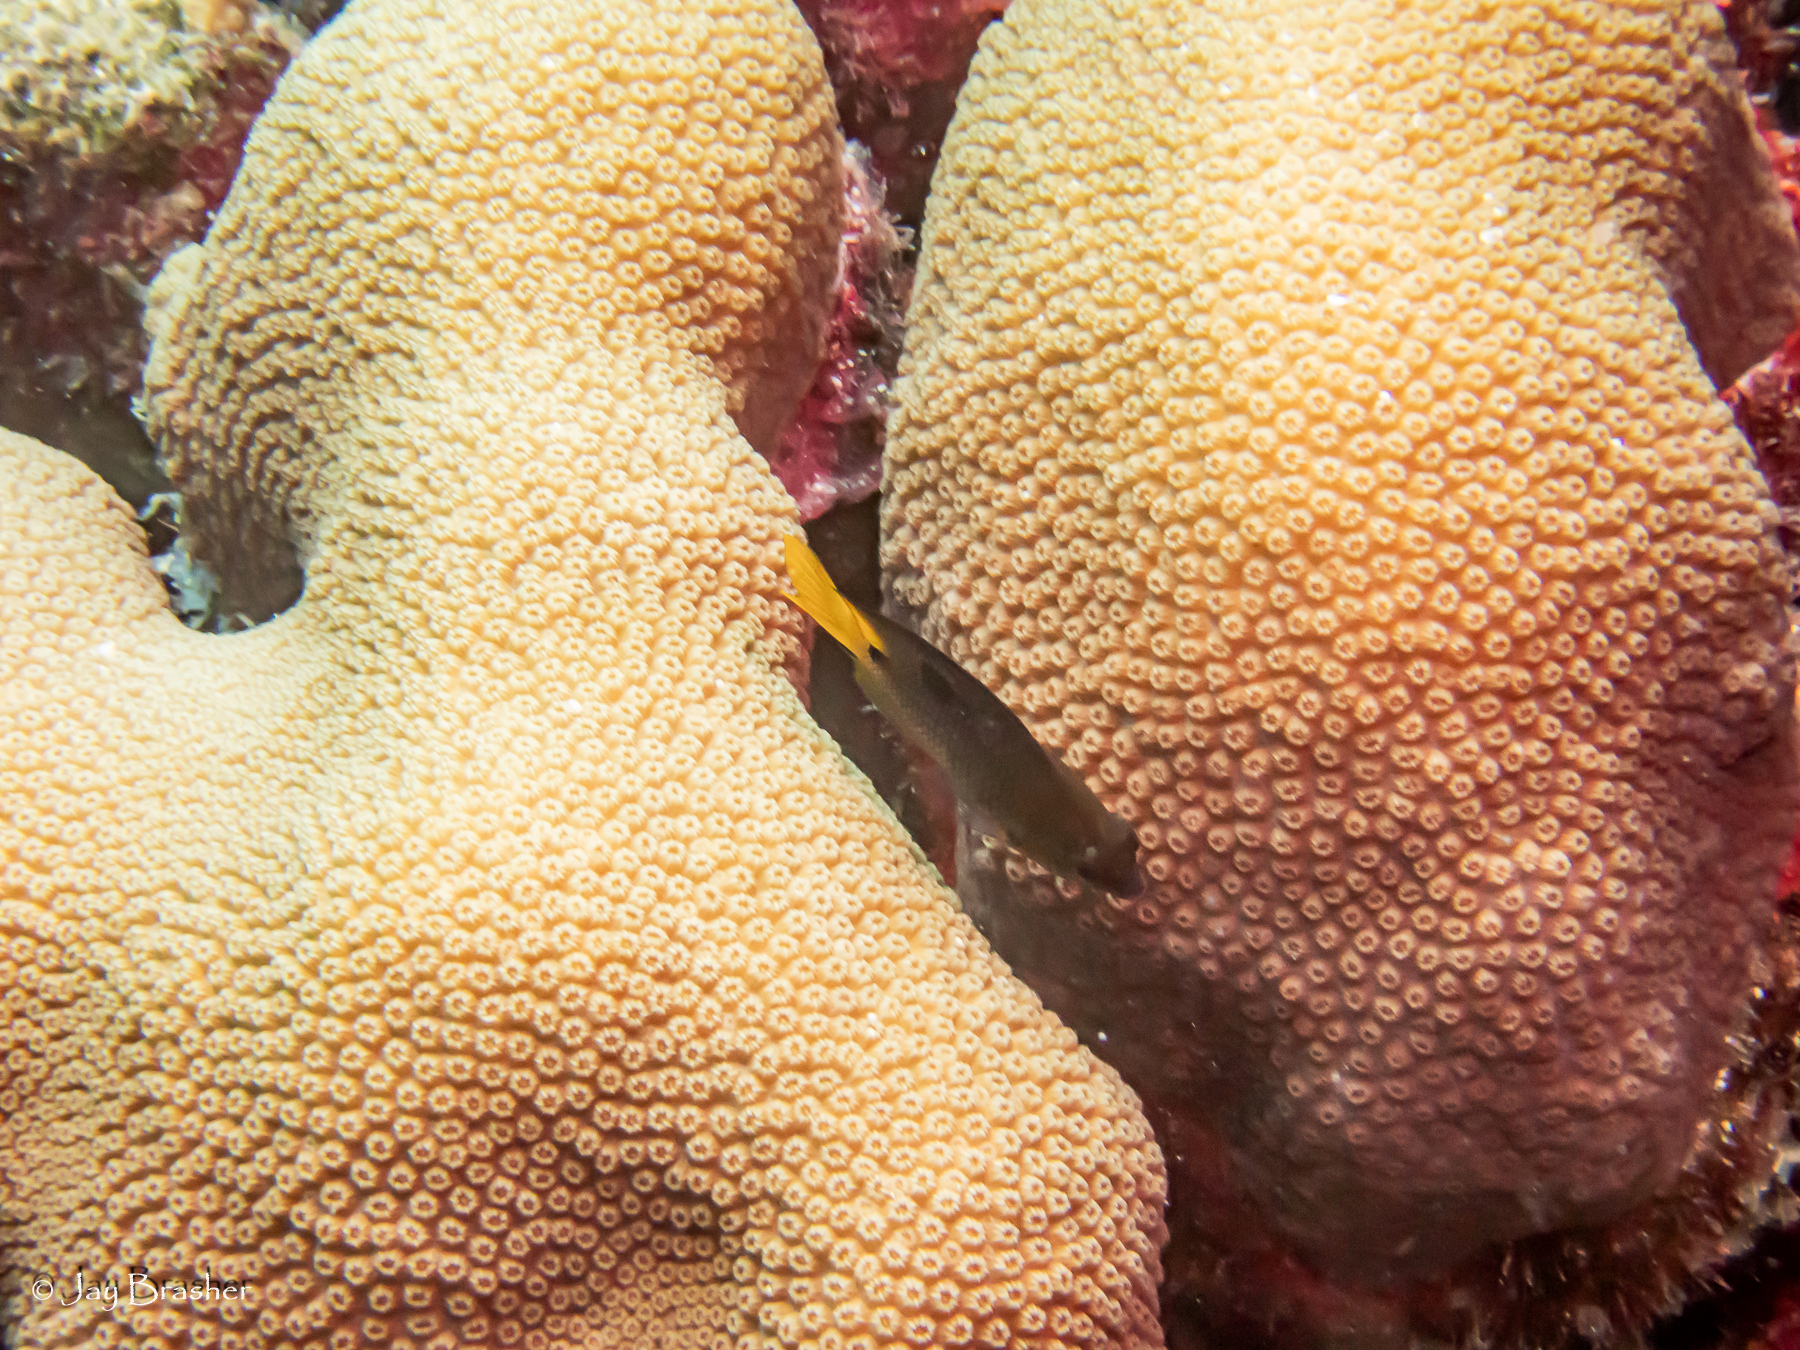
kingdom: Animalia
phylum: Chordata
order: Perciformes
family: Pomacentridae
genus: Stegastes
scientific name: Stegastes planifrons
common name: Threespot damselfish
